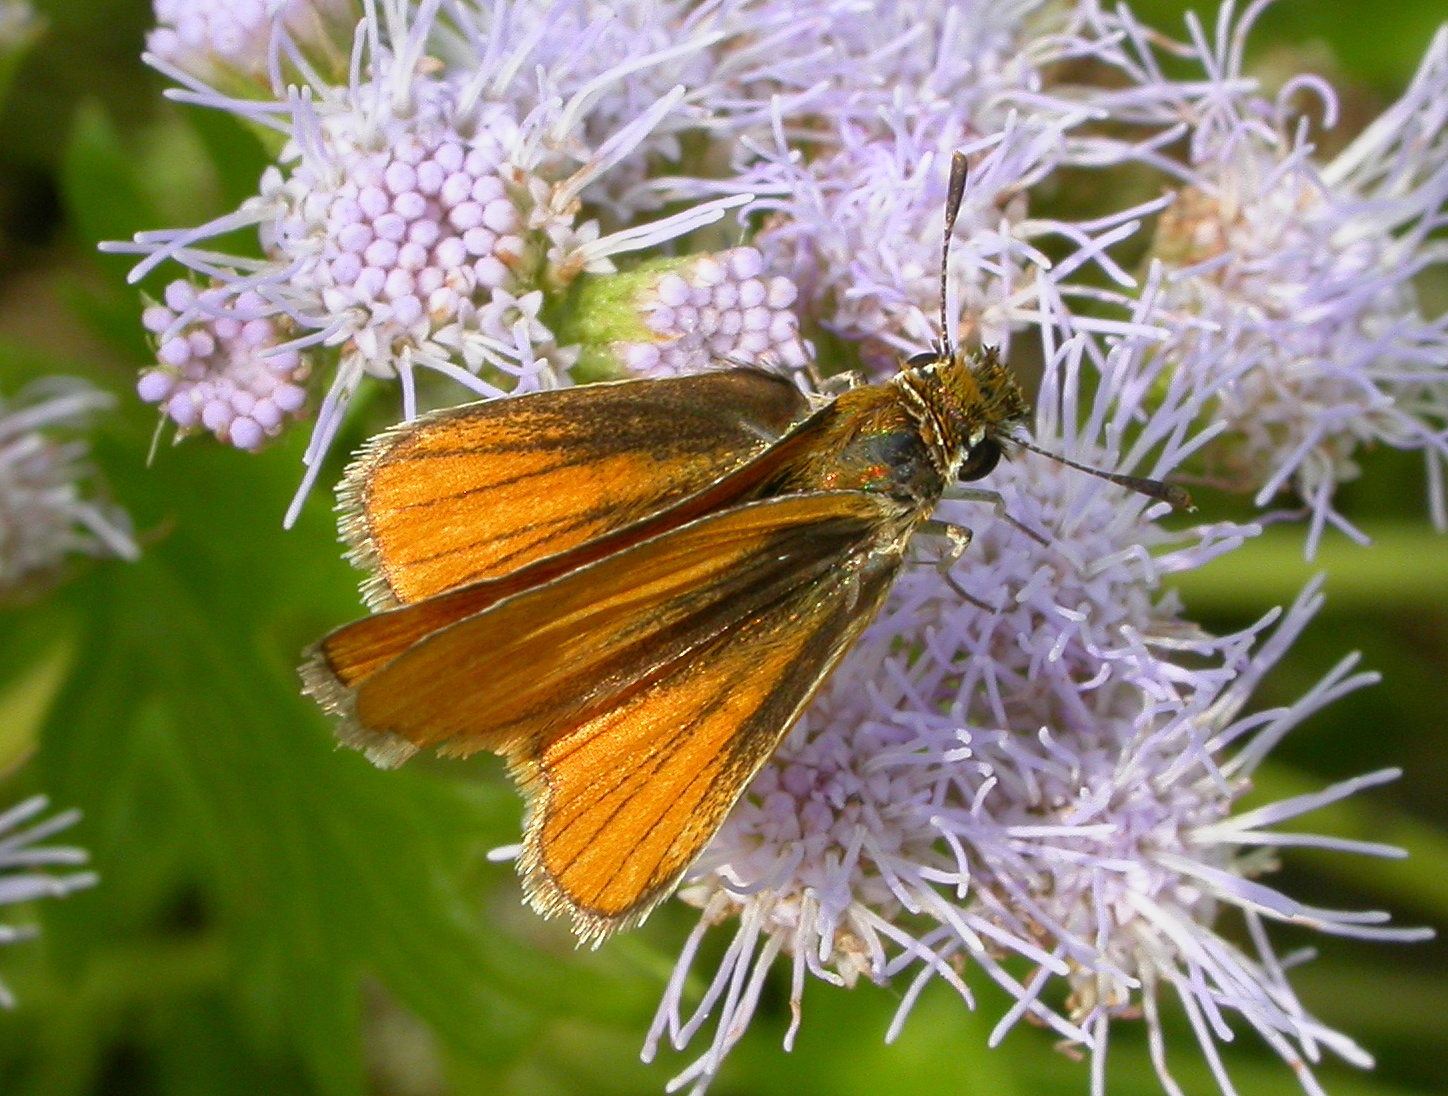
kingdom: Animalia
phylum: Arthropoda
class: Insecta
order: Lepidoptera
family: Hesperiidae
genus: Copaeodes
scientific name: Copaeodes minima
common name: Southern skipperling
